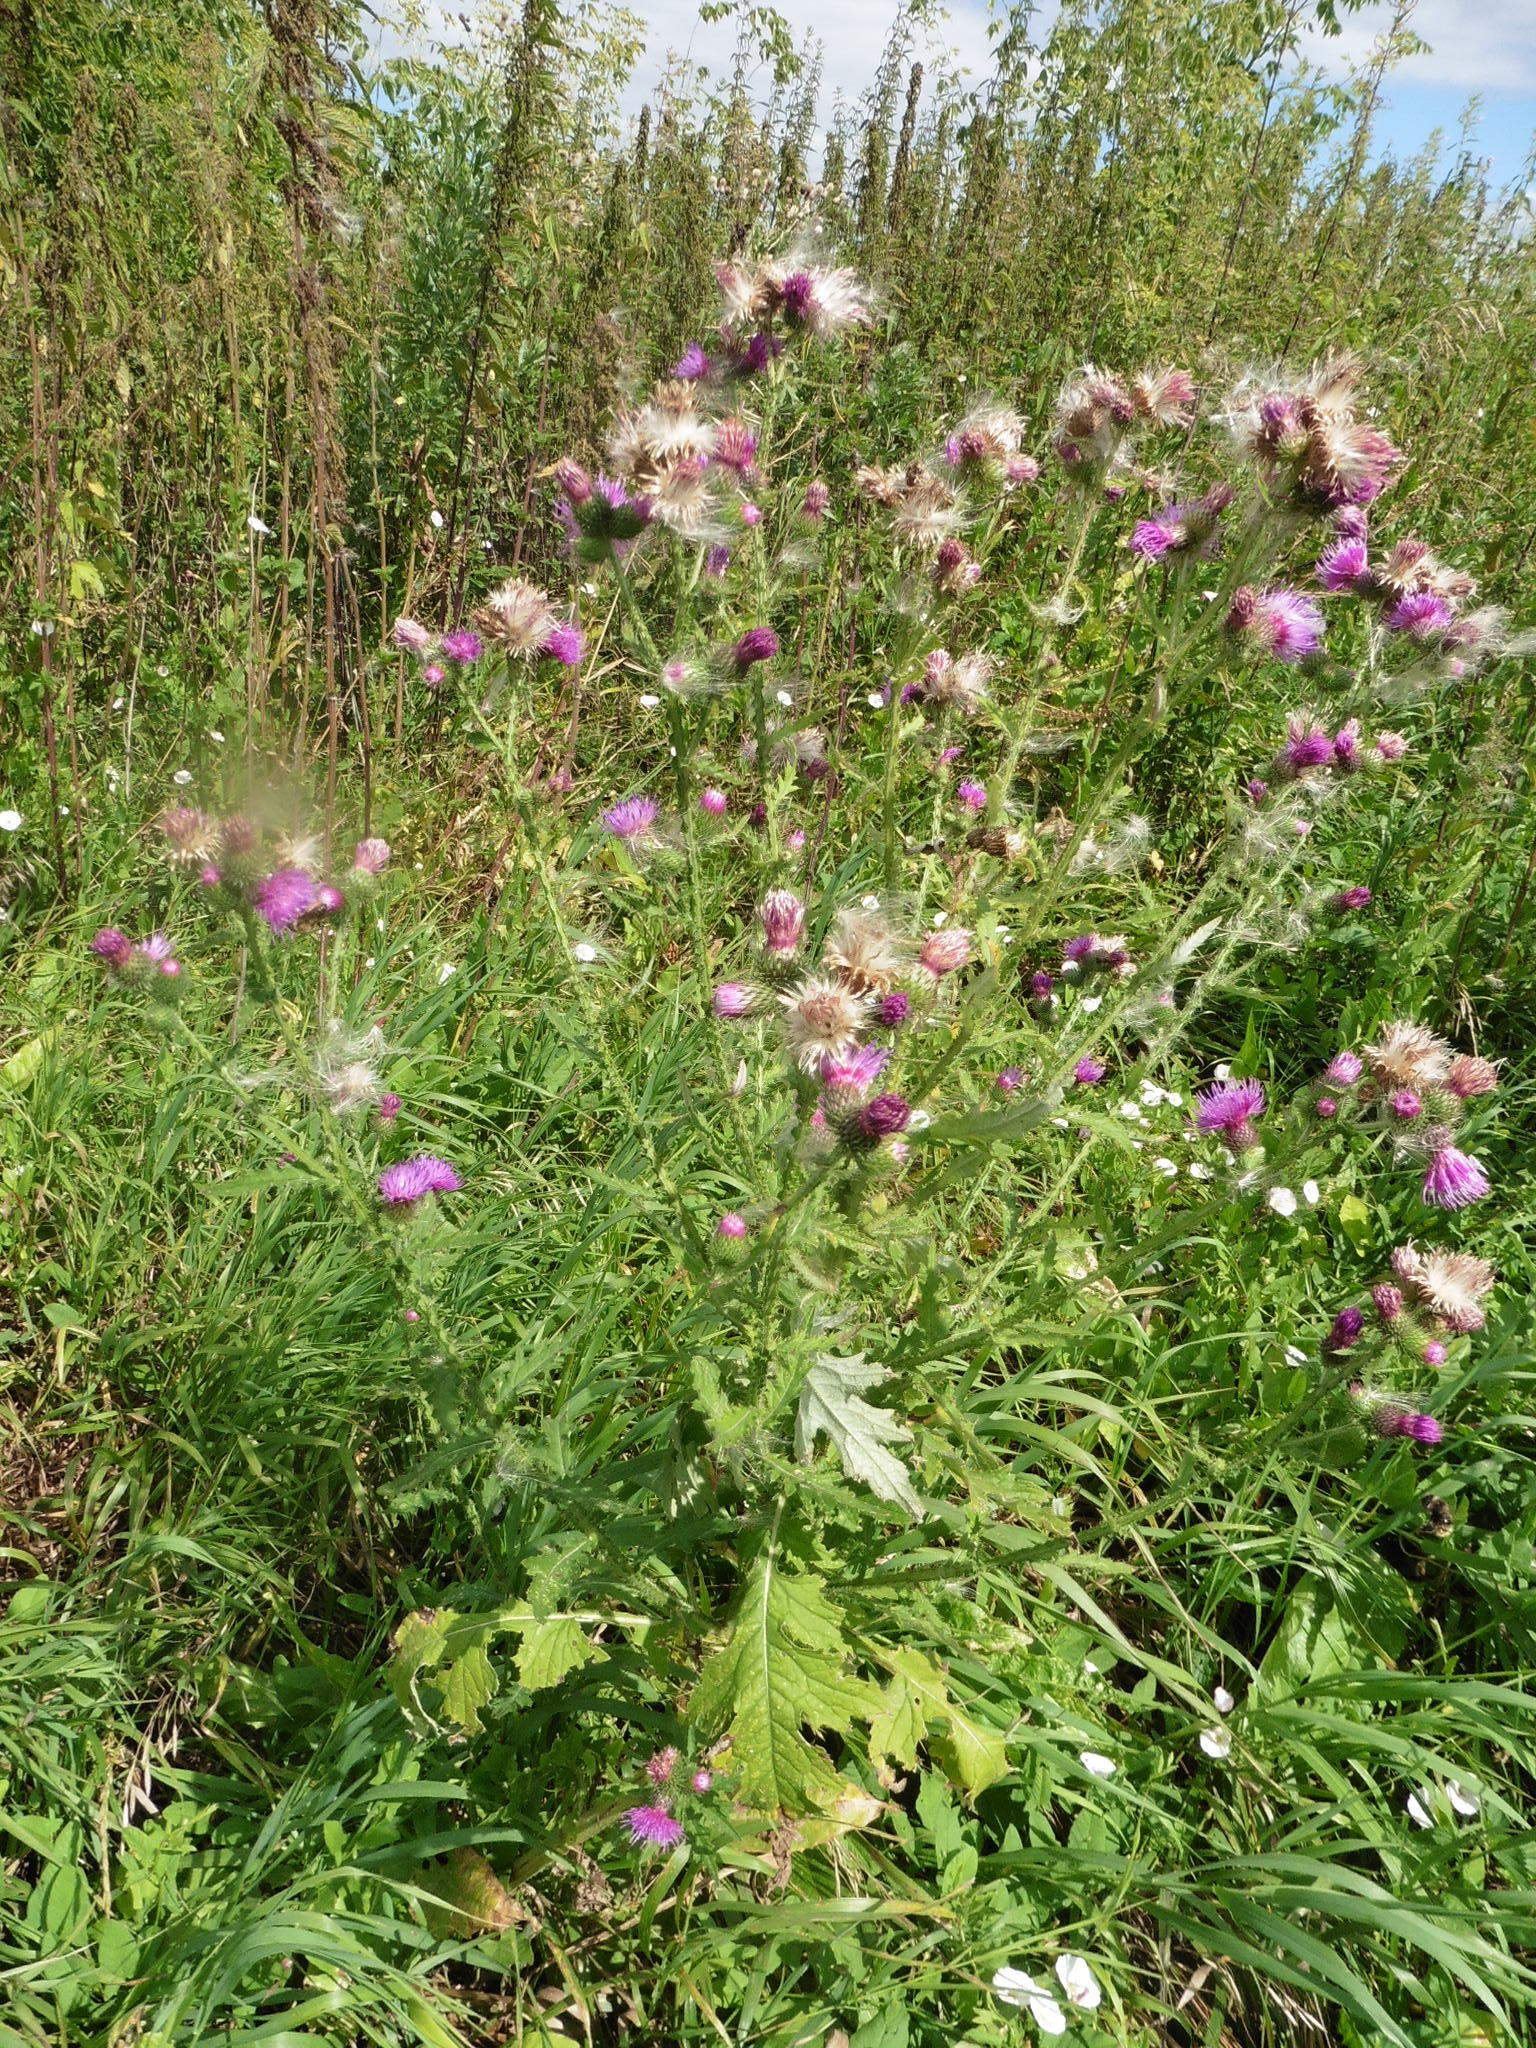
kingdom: Plantae
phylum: Tracheophyta
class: Magnoliopsida
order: Asterales
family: Asteraceae
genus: Carduus
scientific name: Carduus crispus
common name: Welted thistle
